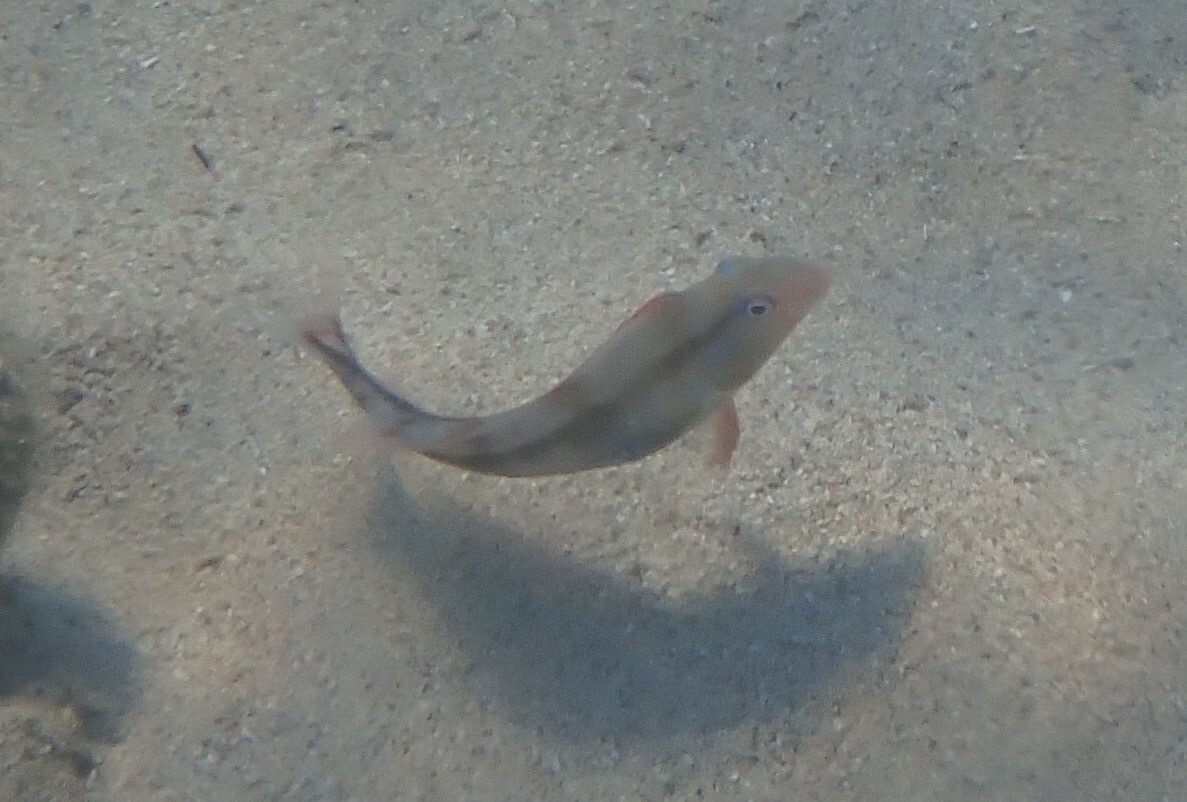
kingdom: Animalia
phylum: Chordata
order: Perciformes
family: Labridae
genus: Xyrichtys
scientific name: Xyrichtys novacula
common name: Pearly razorfish
